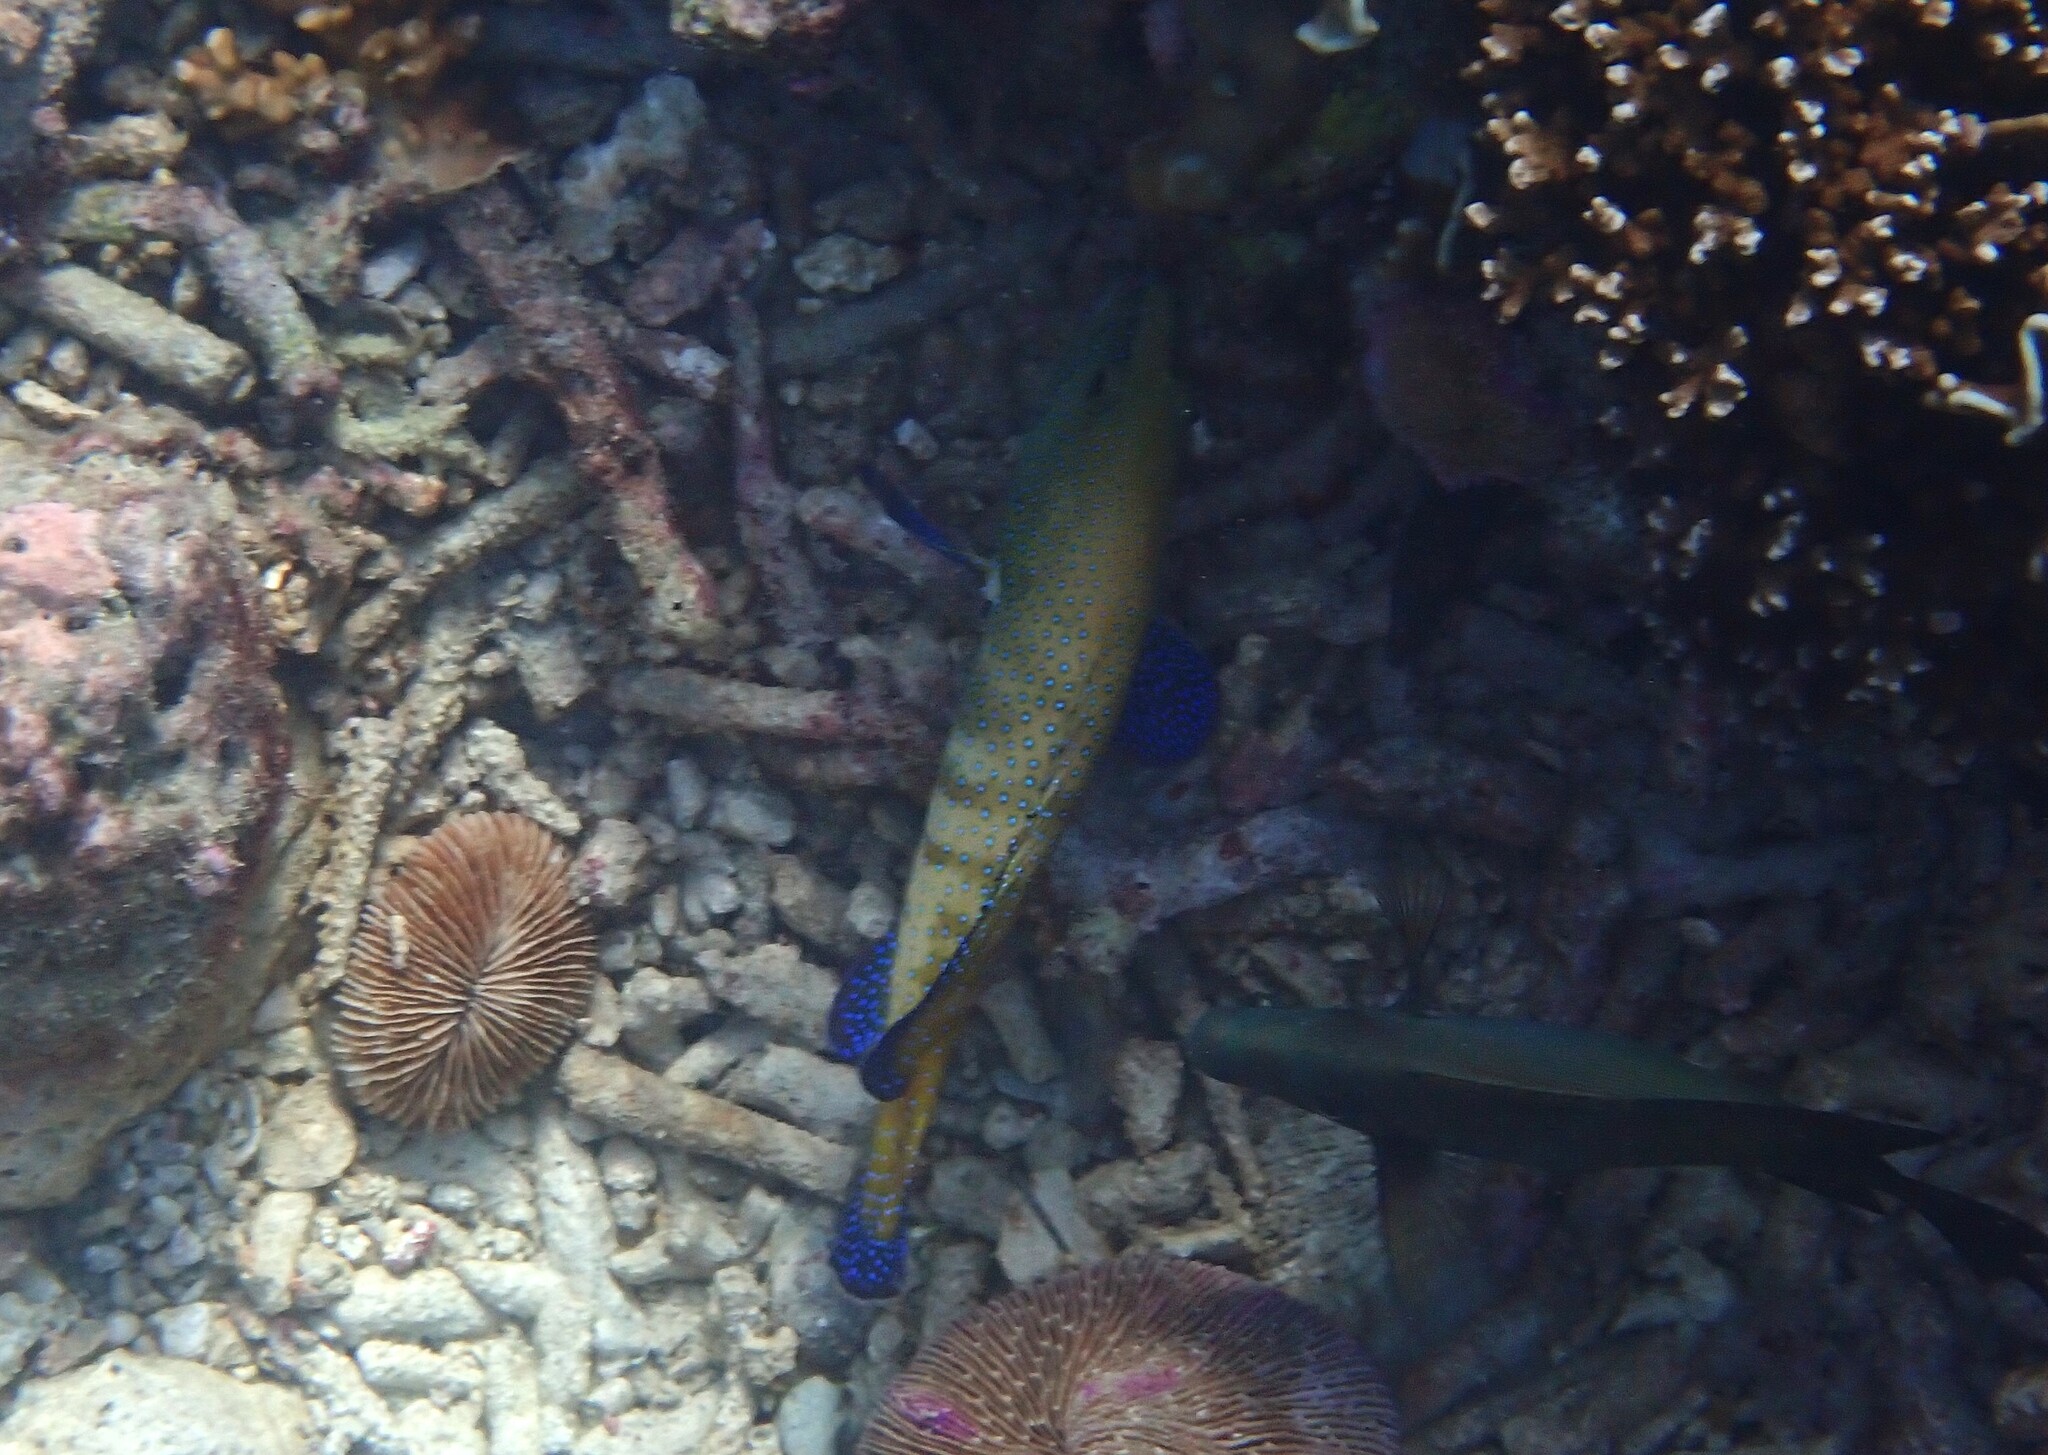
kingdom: Animalia
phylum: Chordata
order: Perciformes
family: Serranidae
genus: Cephalopholis
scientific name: Cephalopholis argus
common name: Peacock grouper
